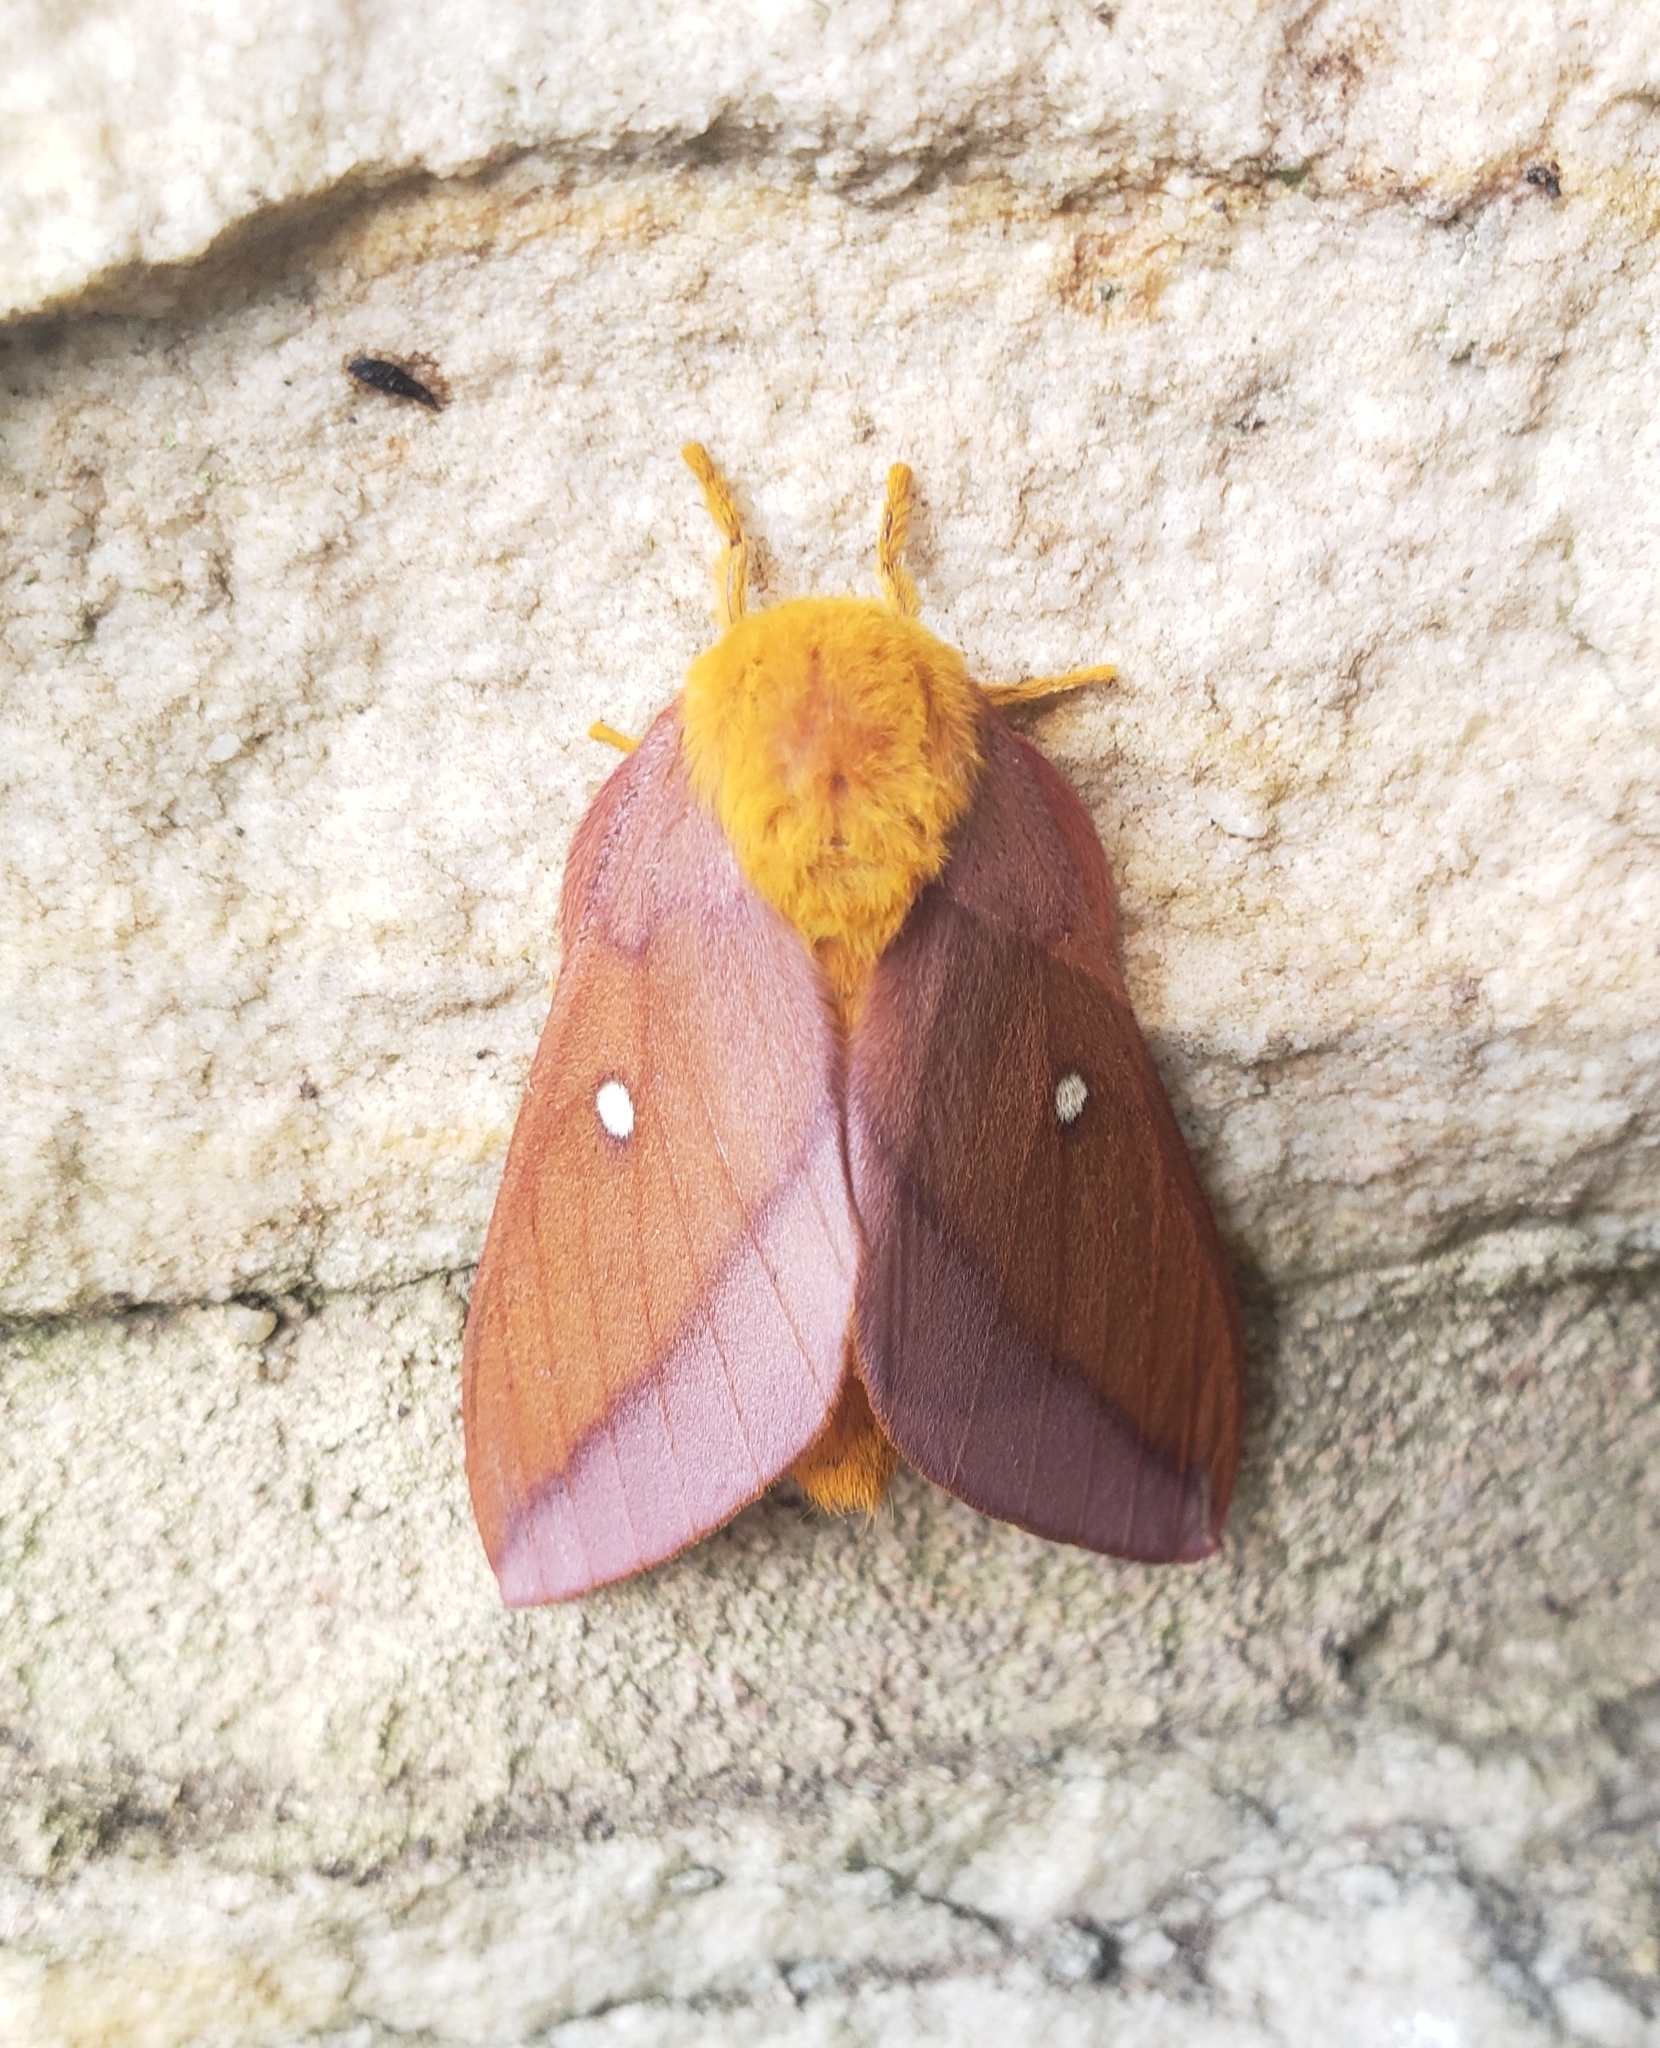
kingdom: Animalia
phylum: Arthropoda
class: Insecta
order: Lepidoptera
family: Saturniidae
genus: Anisota
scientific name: Anisota virginiensis
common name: Pink striped oakworm moth
